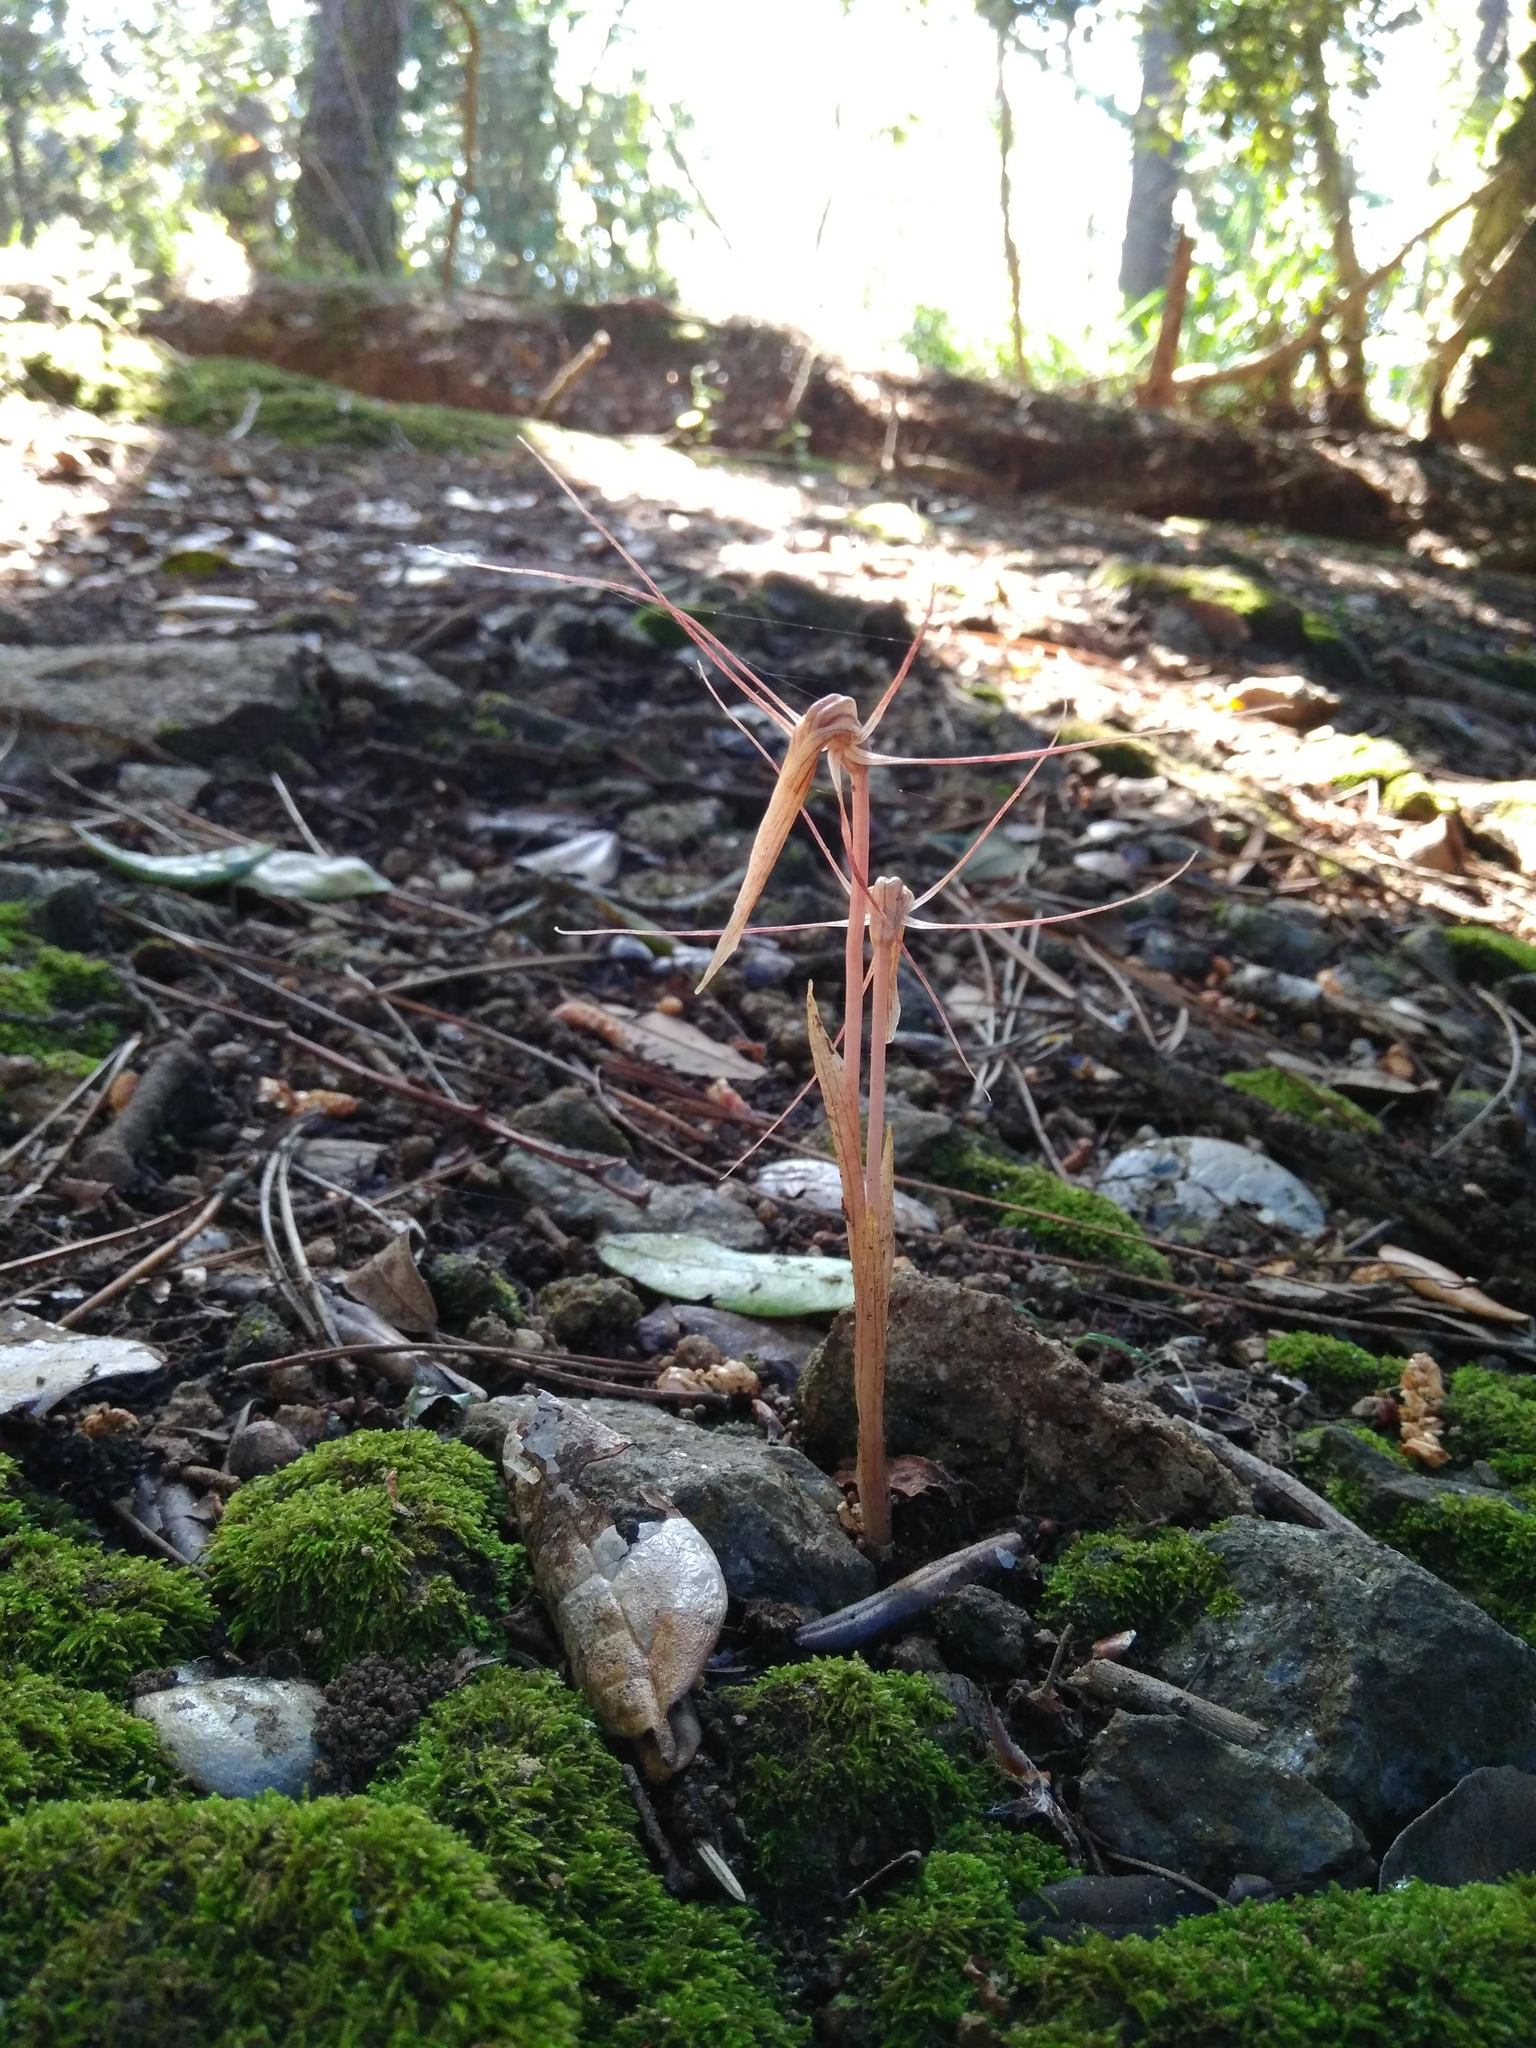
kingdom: Plantae
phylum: Tracheophyta
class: Liliopsida
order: Liliales
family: Corsiaceae
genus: Arachnitis
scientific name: Arachnitis uniflora
